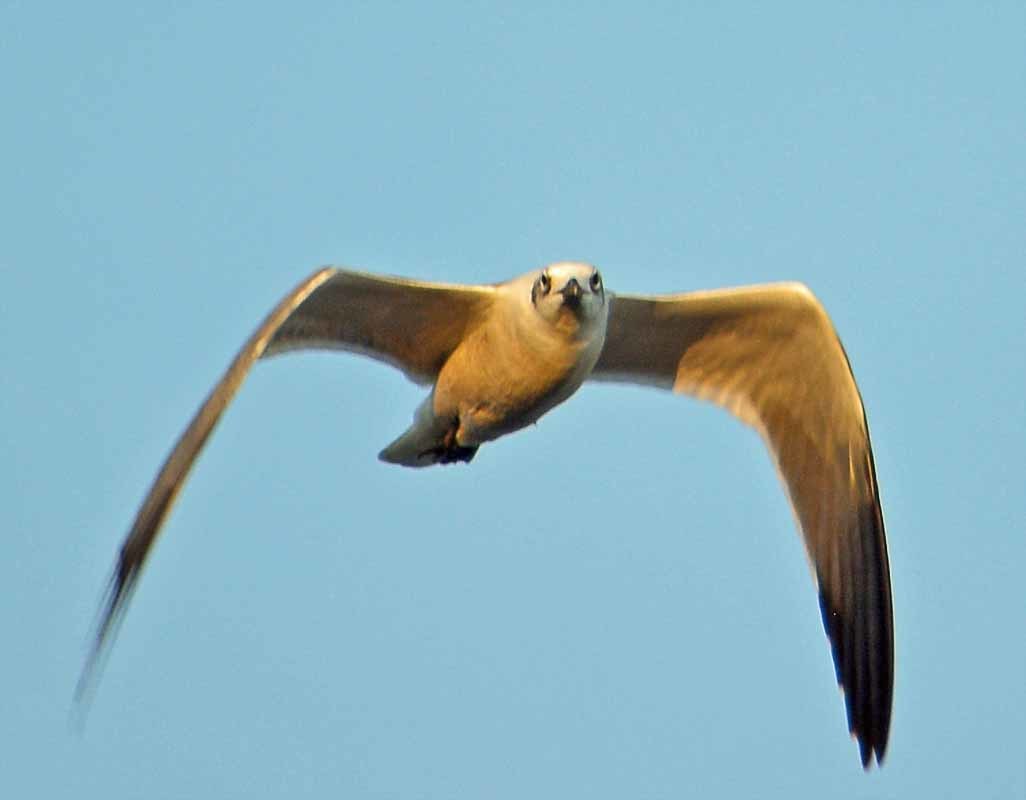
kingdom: Animalia
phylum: Chordata
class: Aves
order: Charadriiformes
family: Laridae
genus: Leucophaeus
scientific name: Leucophaeus atricilla
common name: Laughing gull
